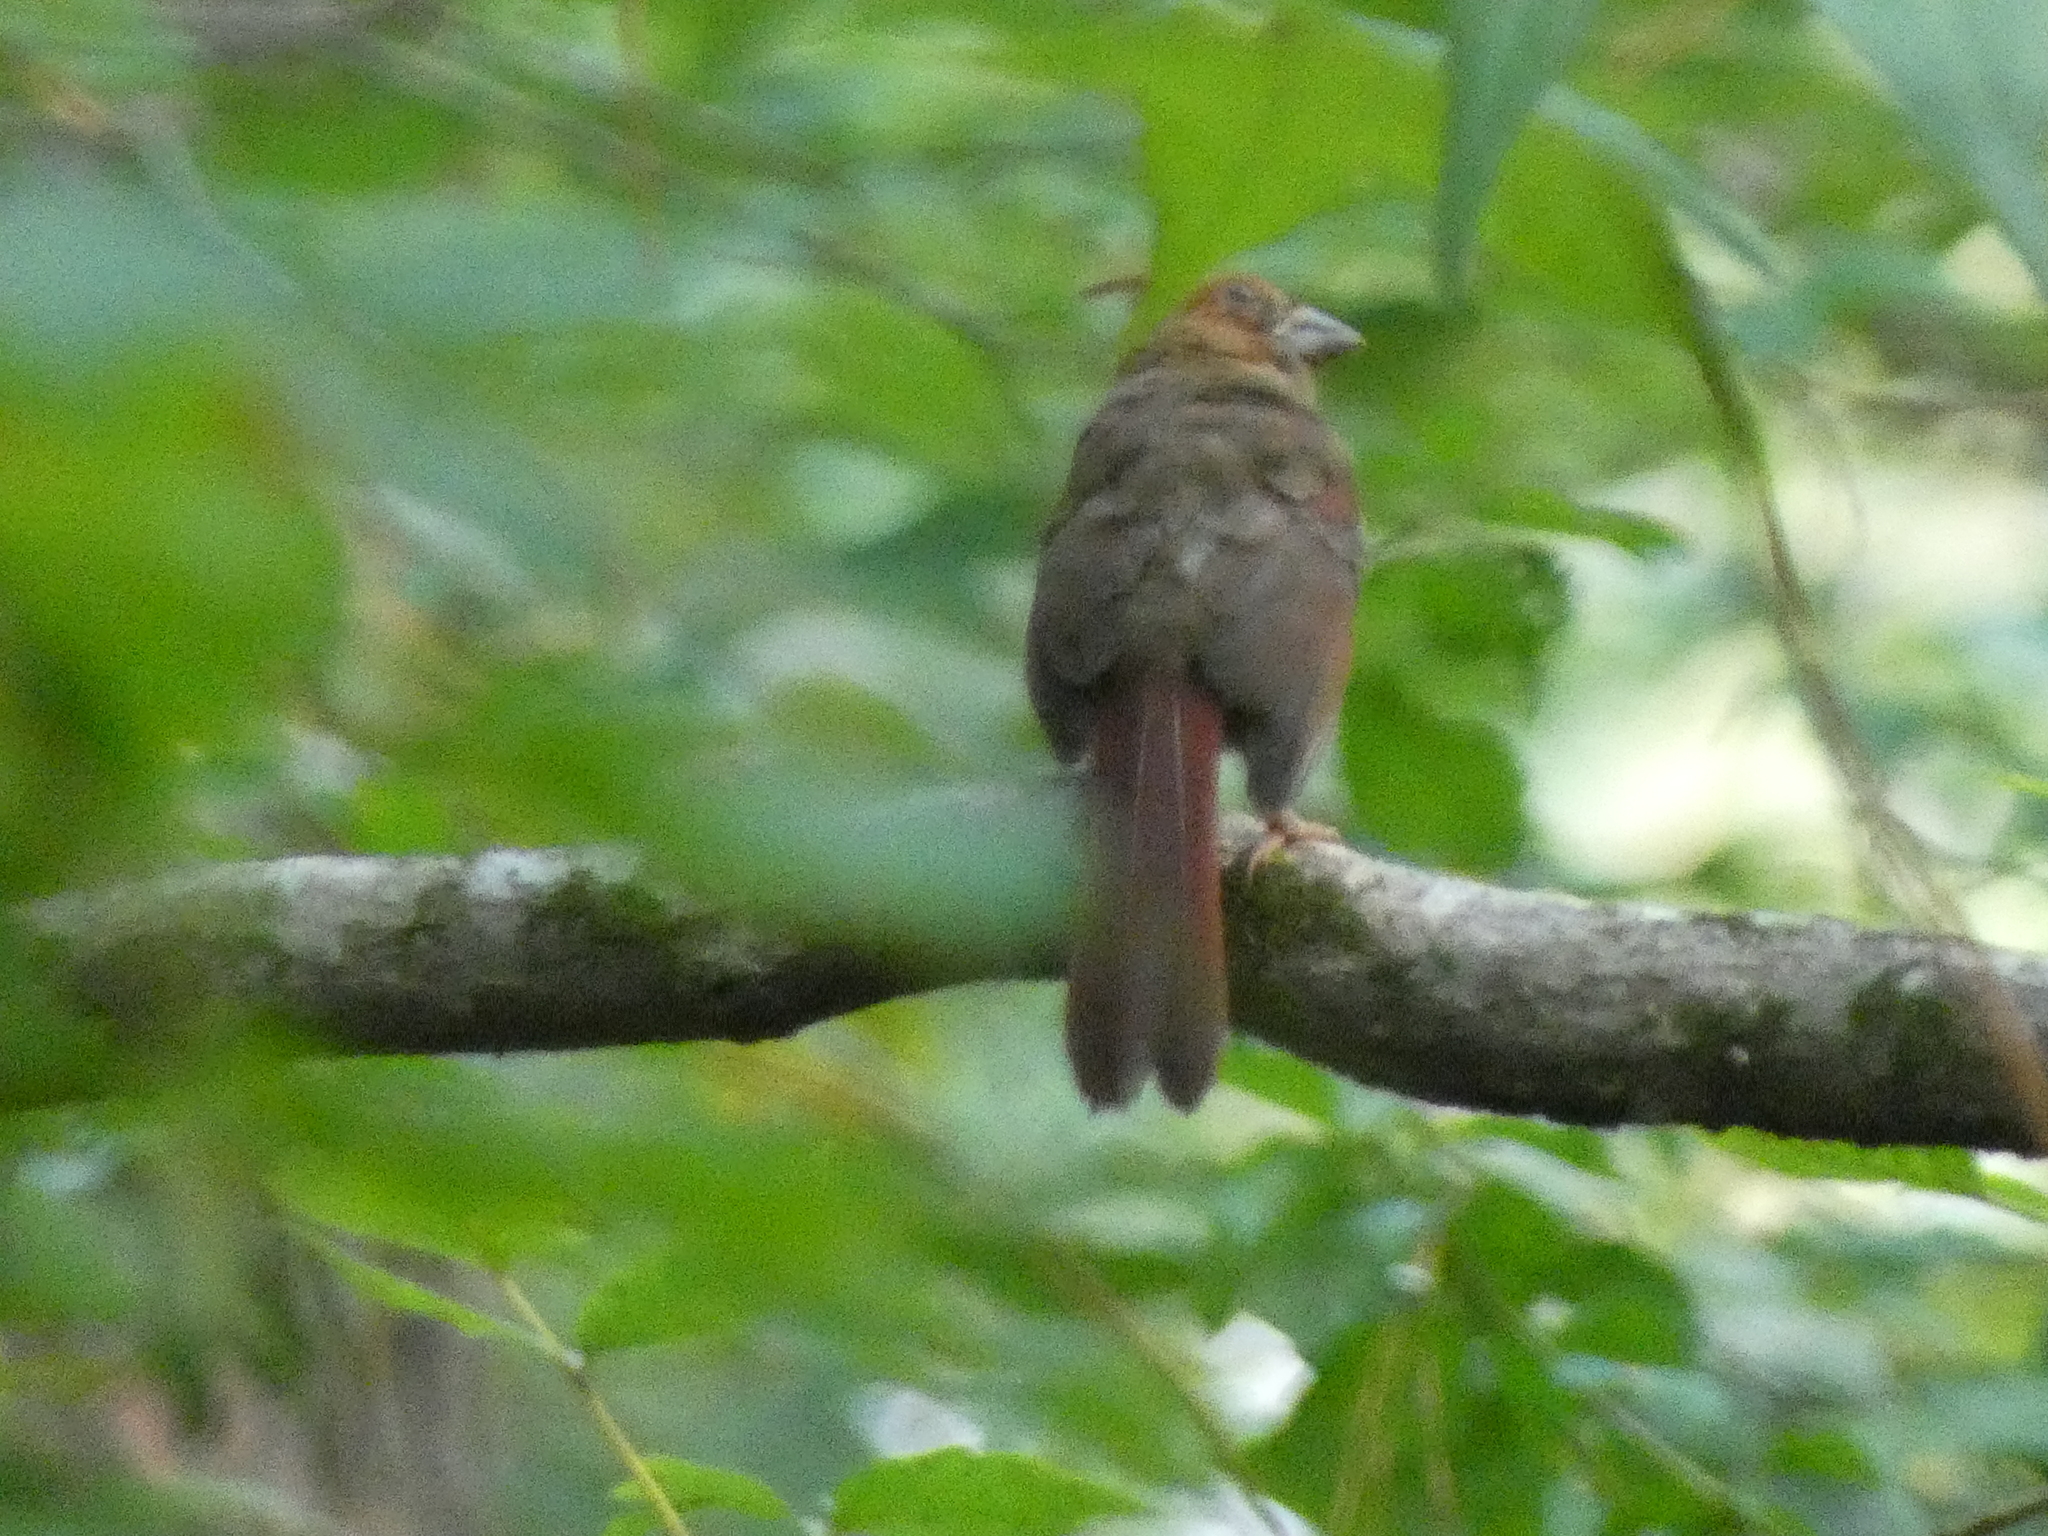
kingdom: Animalia
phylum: Chordata
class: Aves
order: Passeriformes
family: Cardinalidae
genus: Cardinalis
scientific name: Cardinalis cardinalis
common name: Northern cardinal
